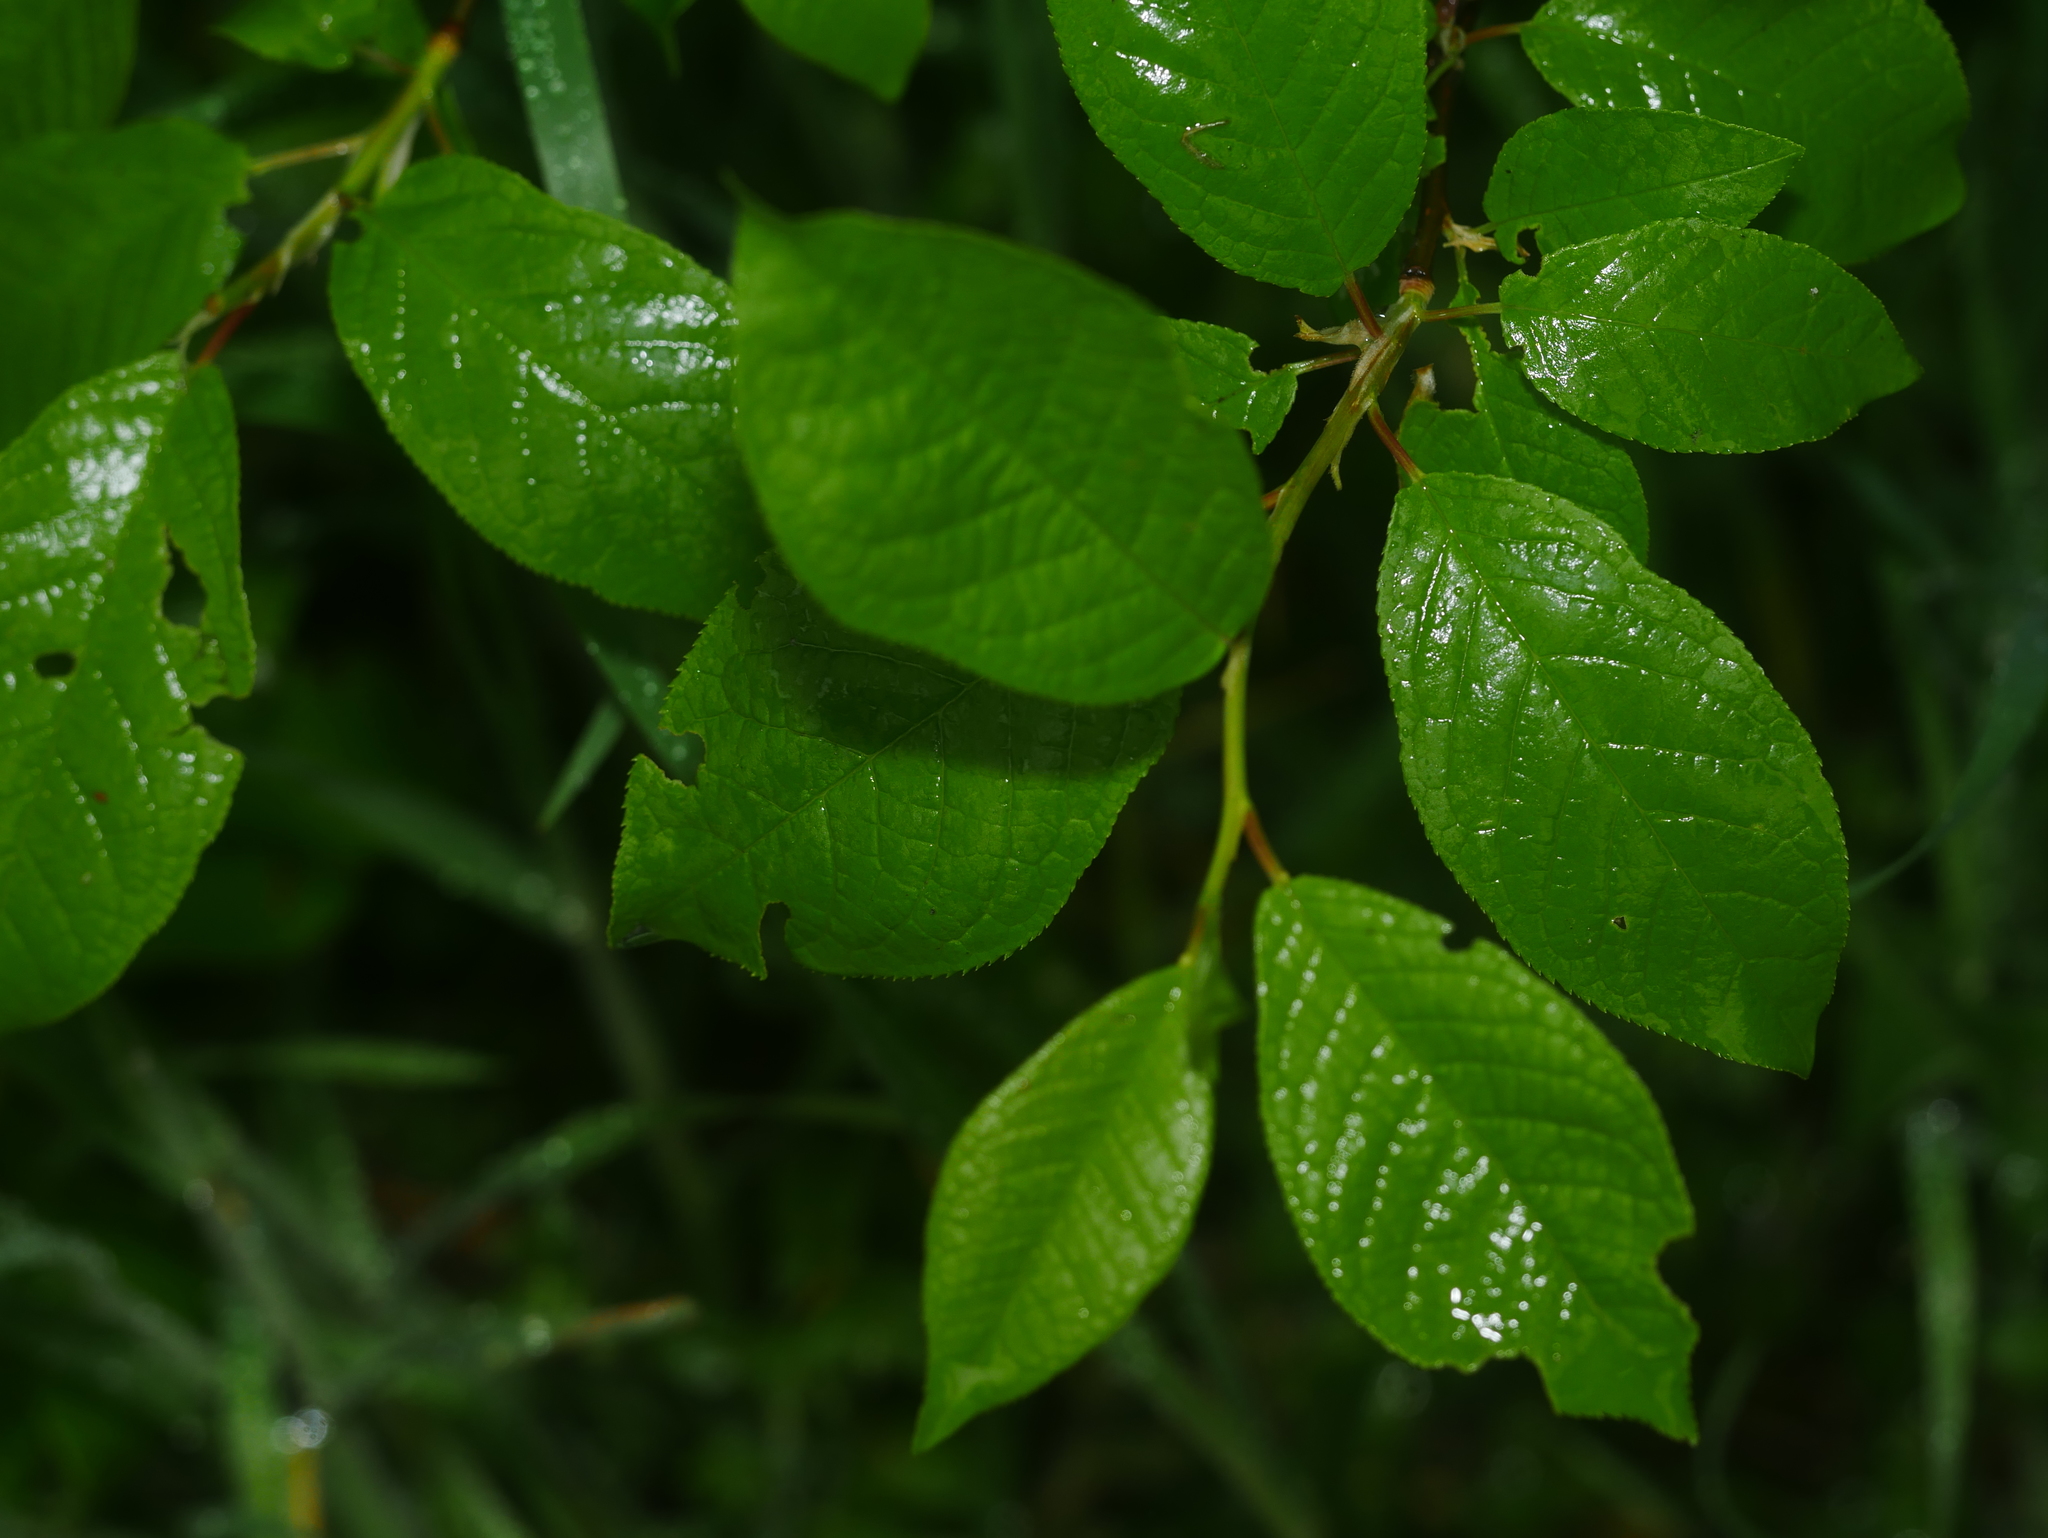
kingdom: Plantae
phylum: Tracheophyta
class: Magnoliopsida
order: Rosales
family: Rosaceae
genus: Prunus
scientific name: Prunus padus
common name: Bird cherry
